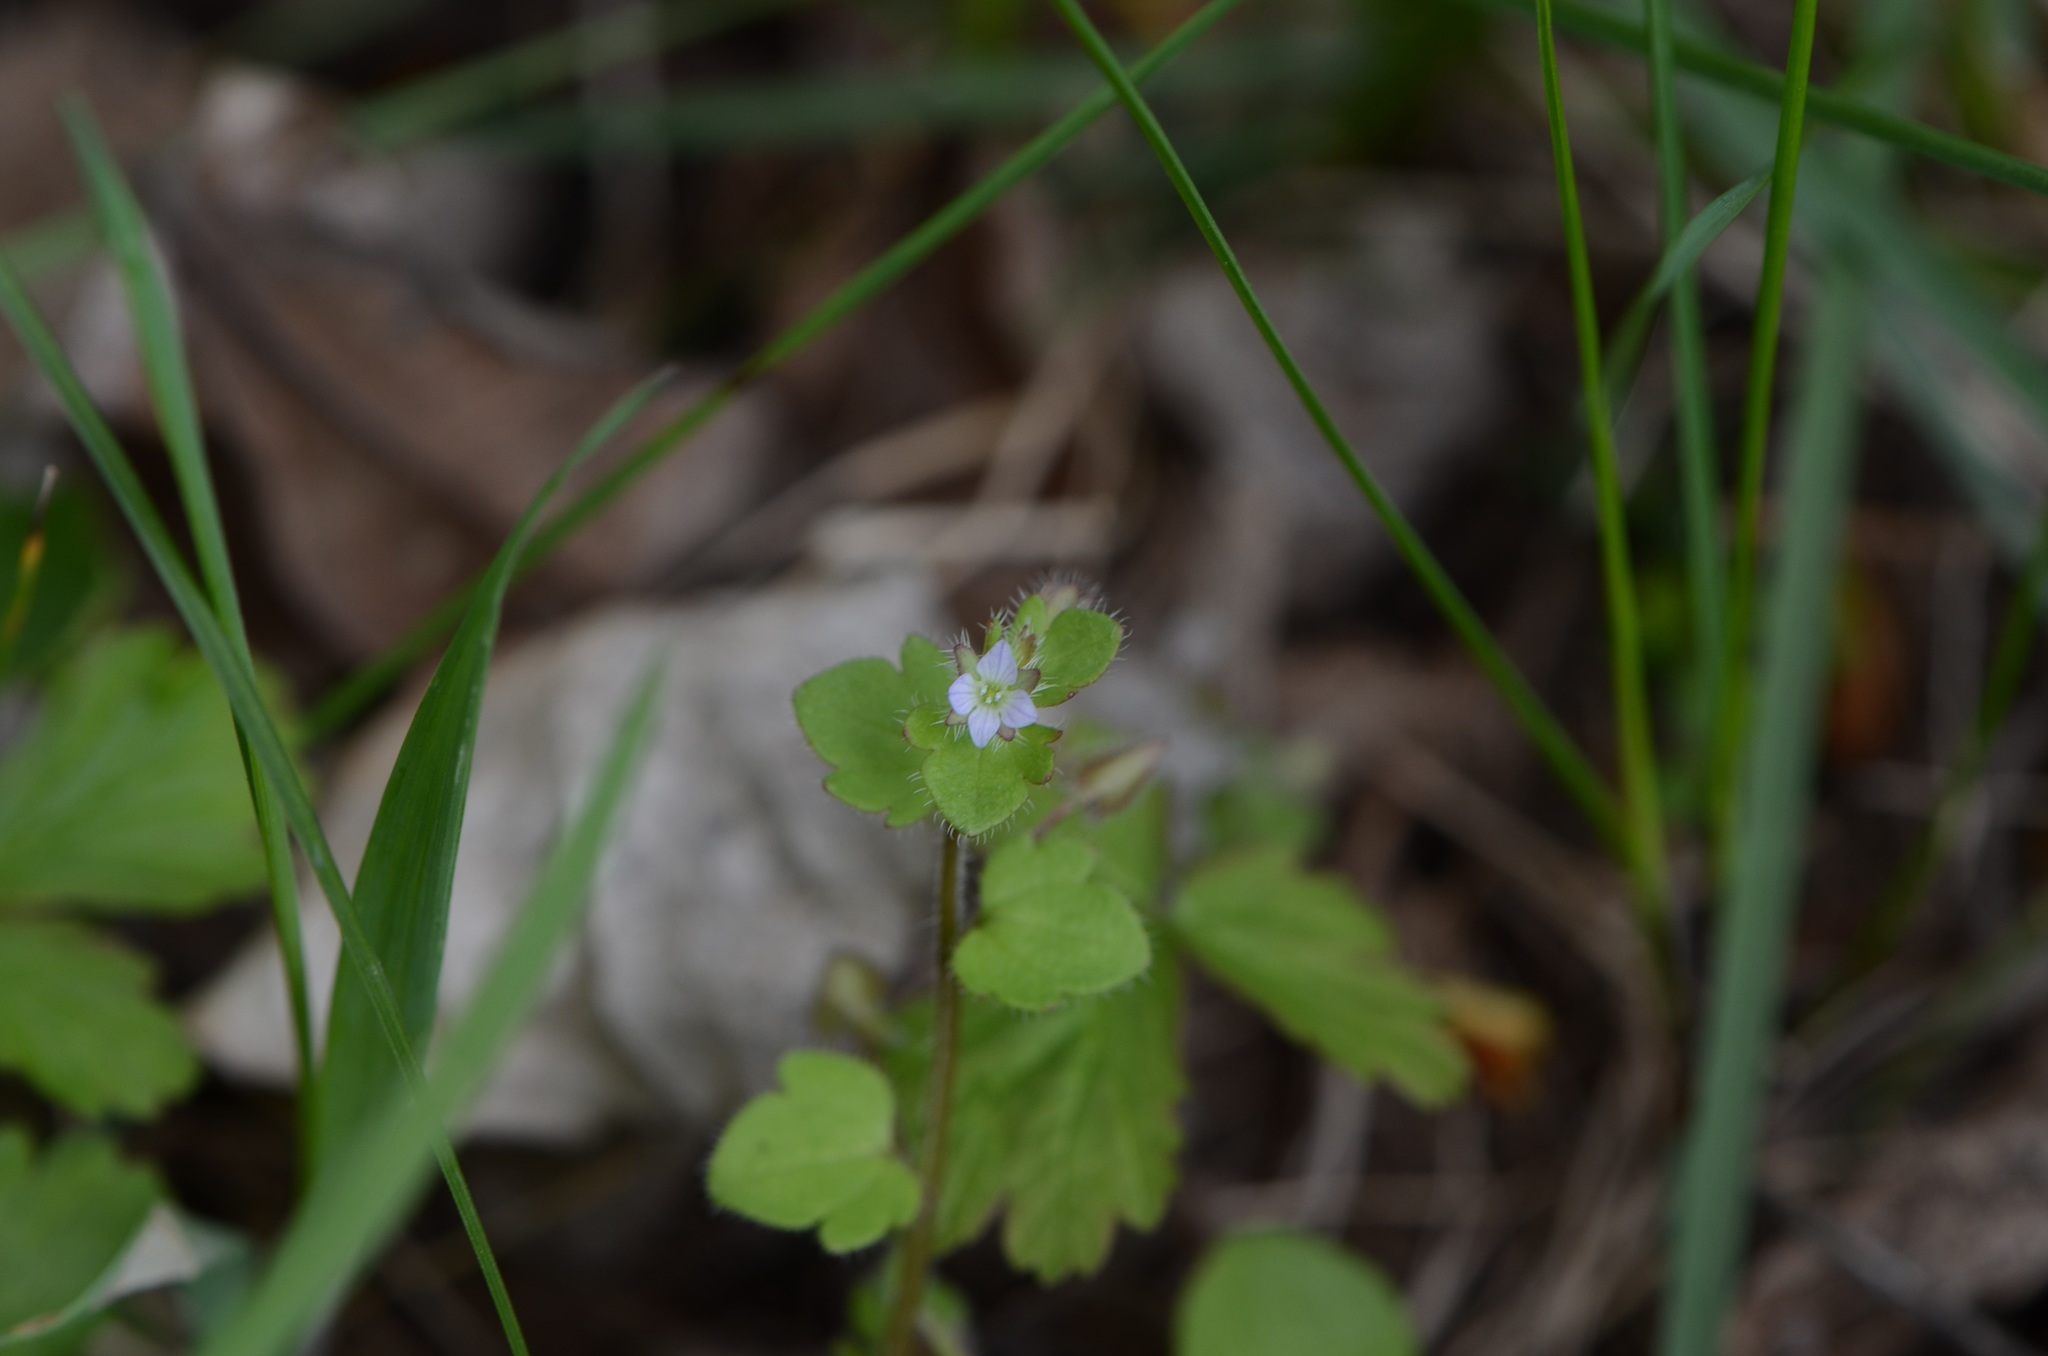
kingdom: Plantae
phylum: Tracheophyta
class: Magnoliopsida
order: Lamiales
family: Plantaginaceae
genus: Veronica
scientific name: Veronica sublobata
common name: False ivy-leaved speedwell
